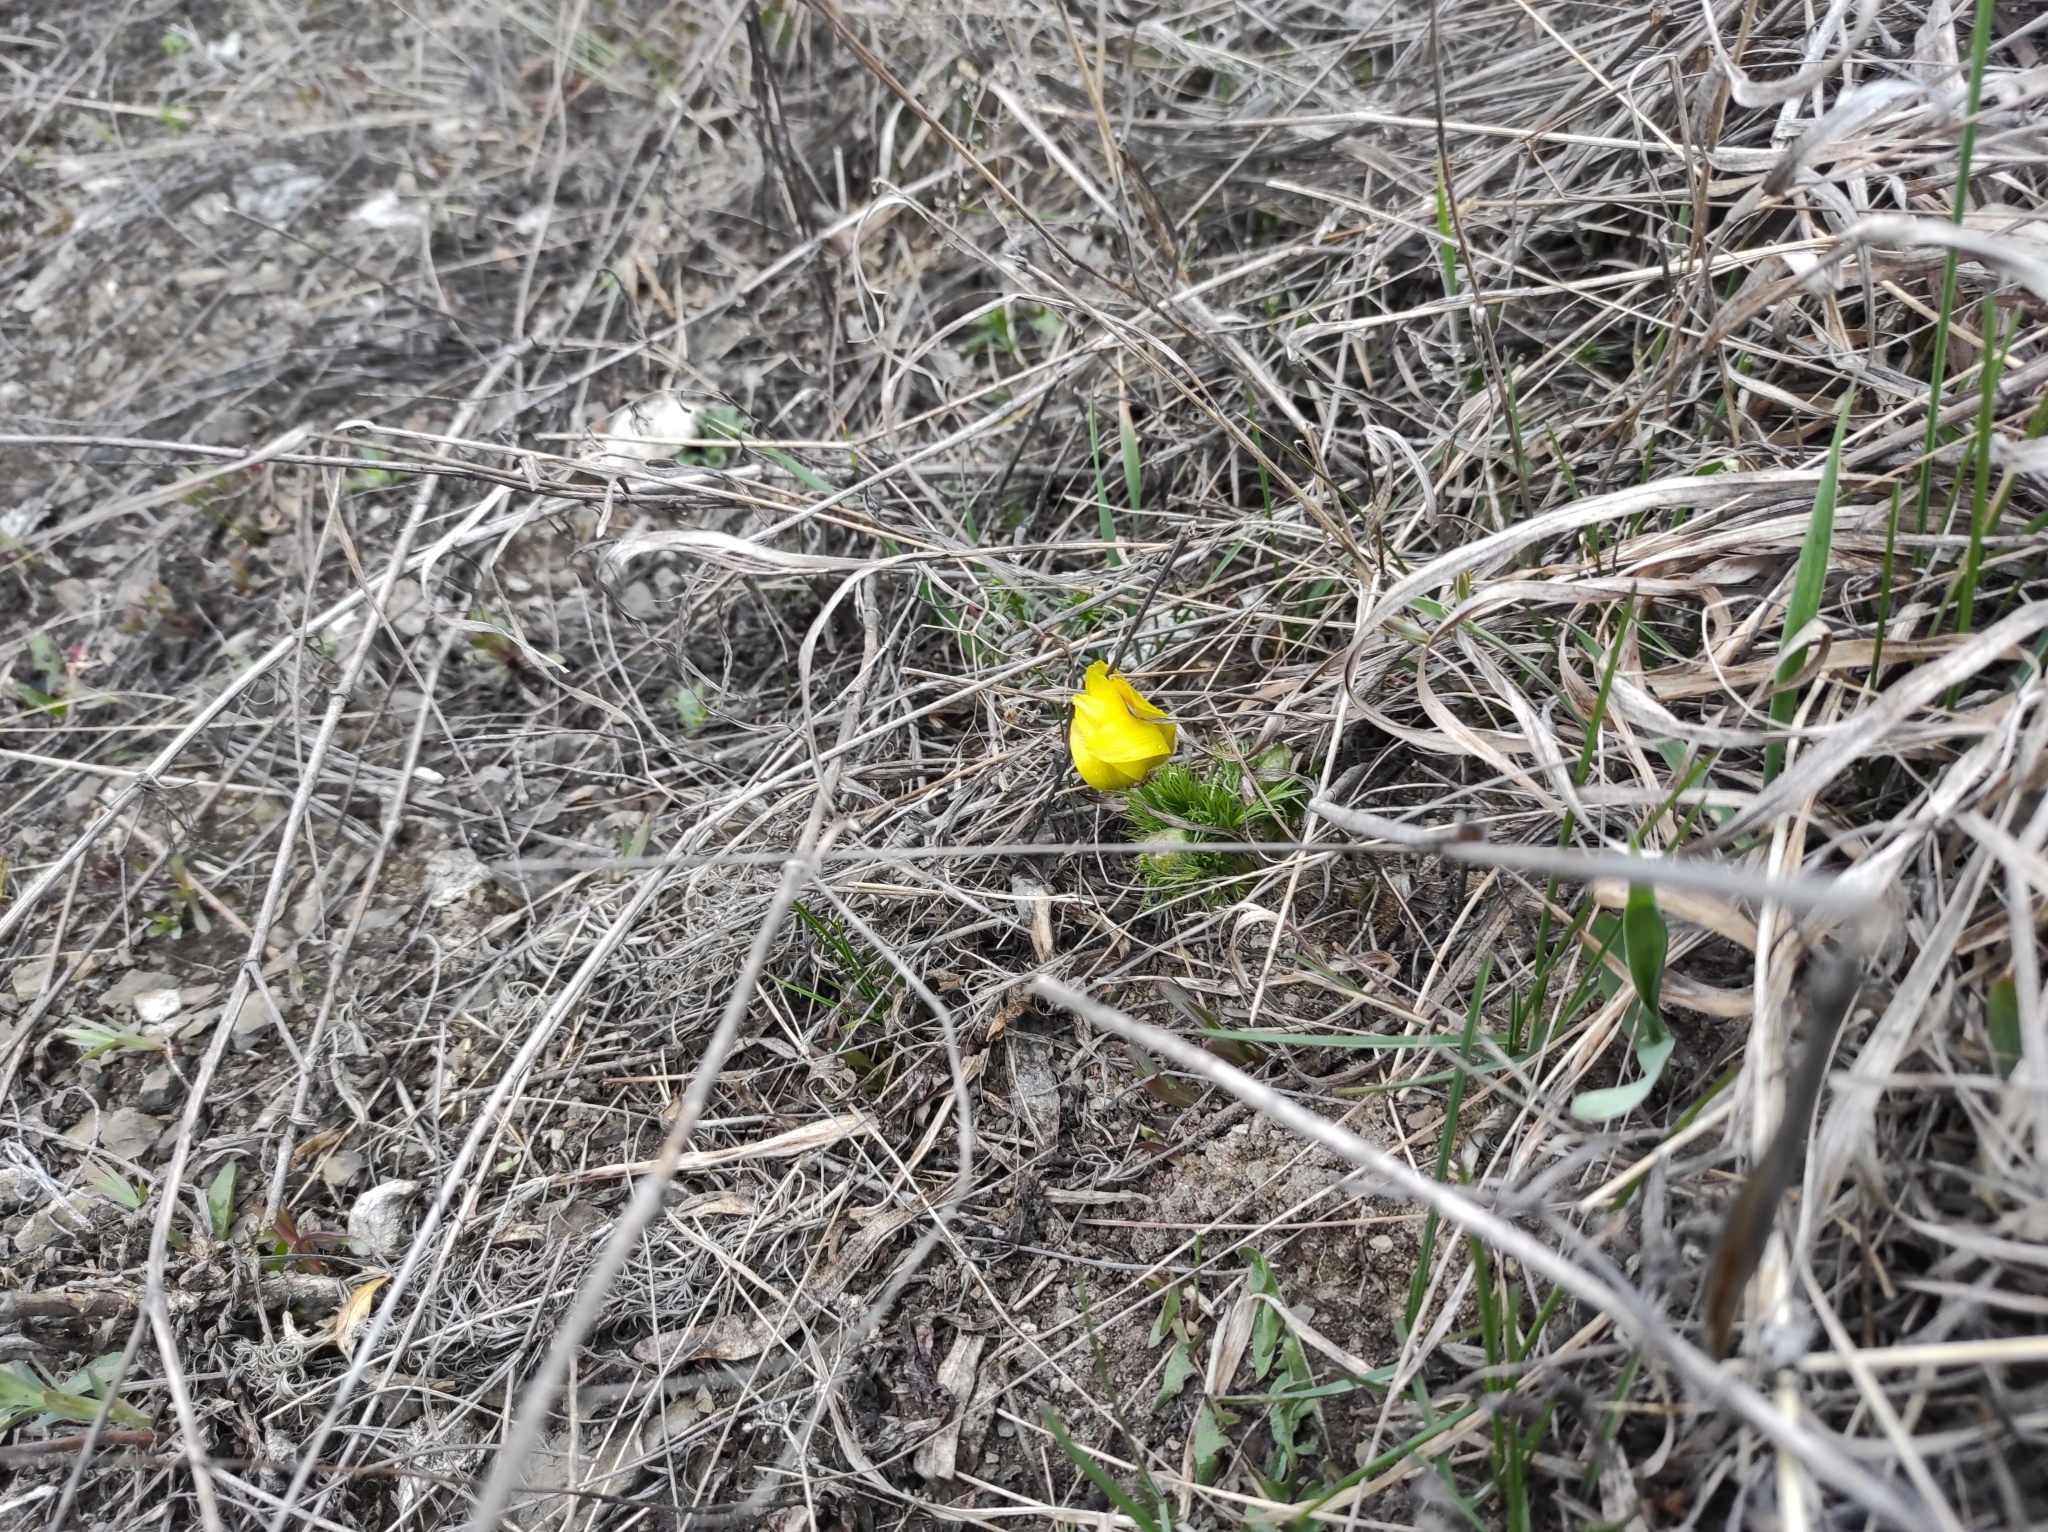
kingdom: Plantae
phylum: Tracheophyta
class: Magnoliopsida
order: Ranunculales
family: Ranunculaceae
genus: Adonis
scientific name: Adonis vernalis
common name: Yellow pheasants-eye
